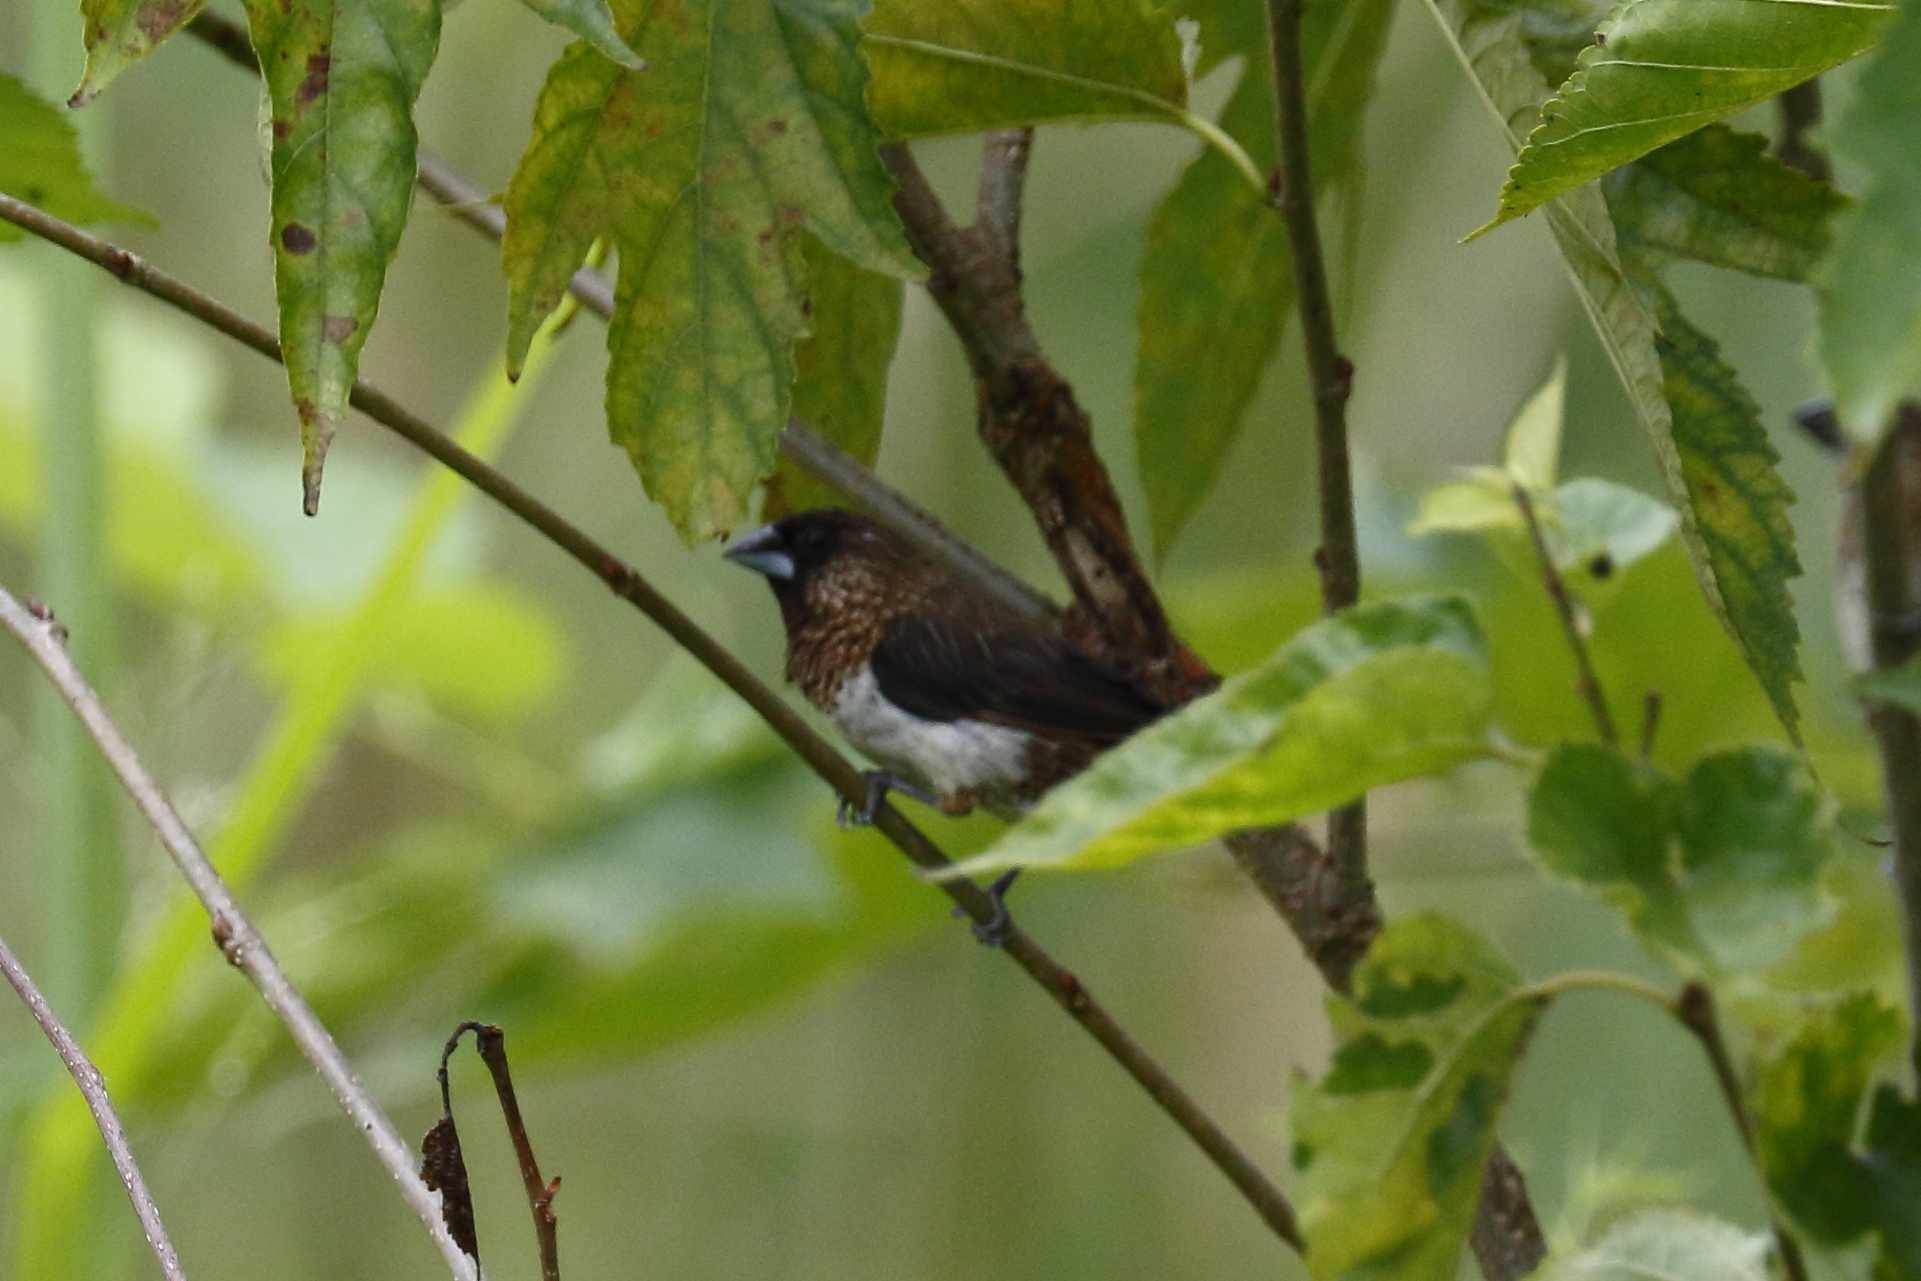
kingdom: Animalia
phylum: Chordata
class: Aves
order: Passeriformes
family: Estrildidae
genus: Lonchura
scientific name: Lonchura striata
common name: White-rumped munia
